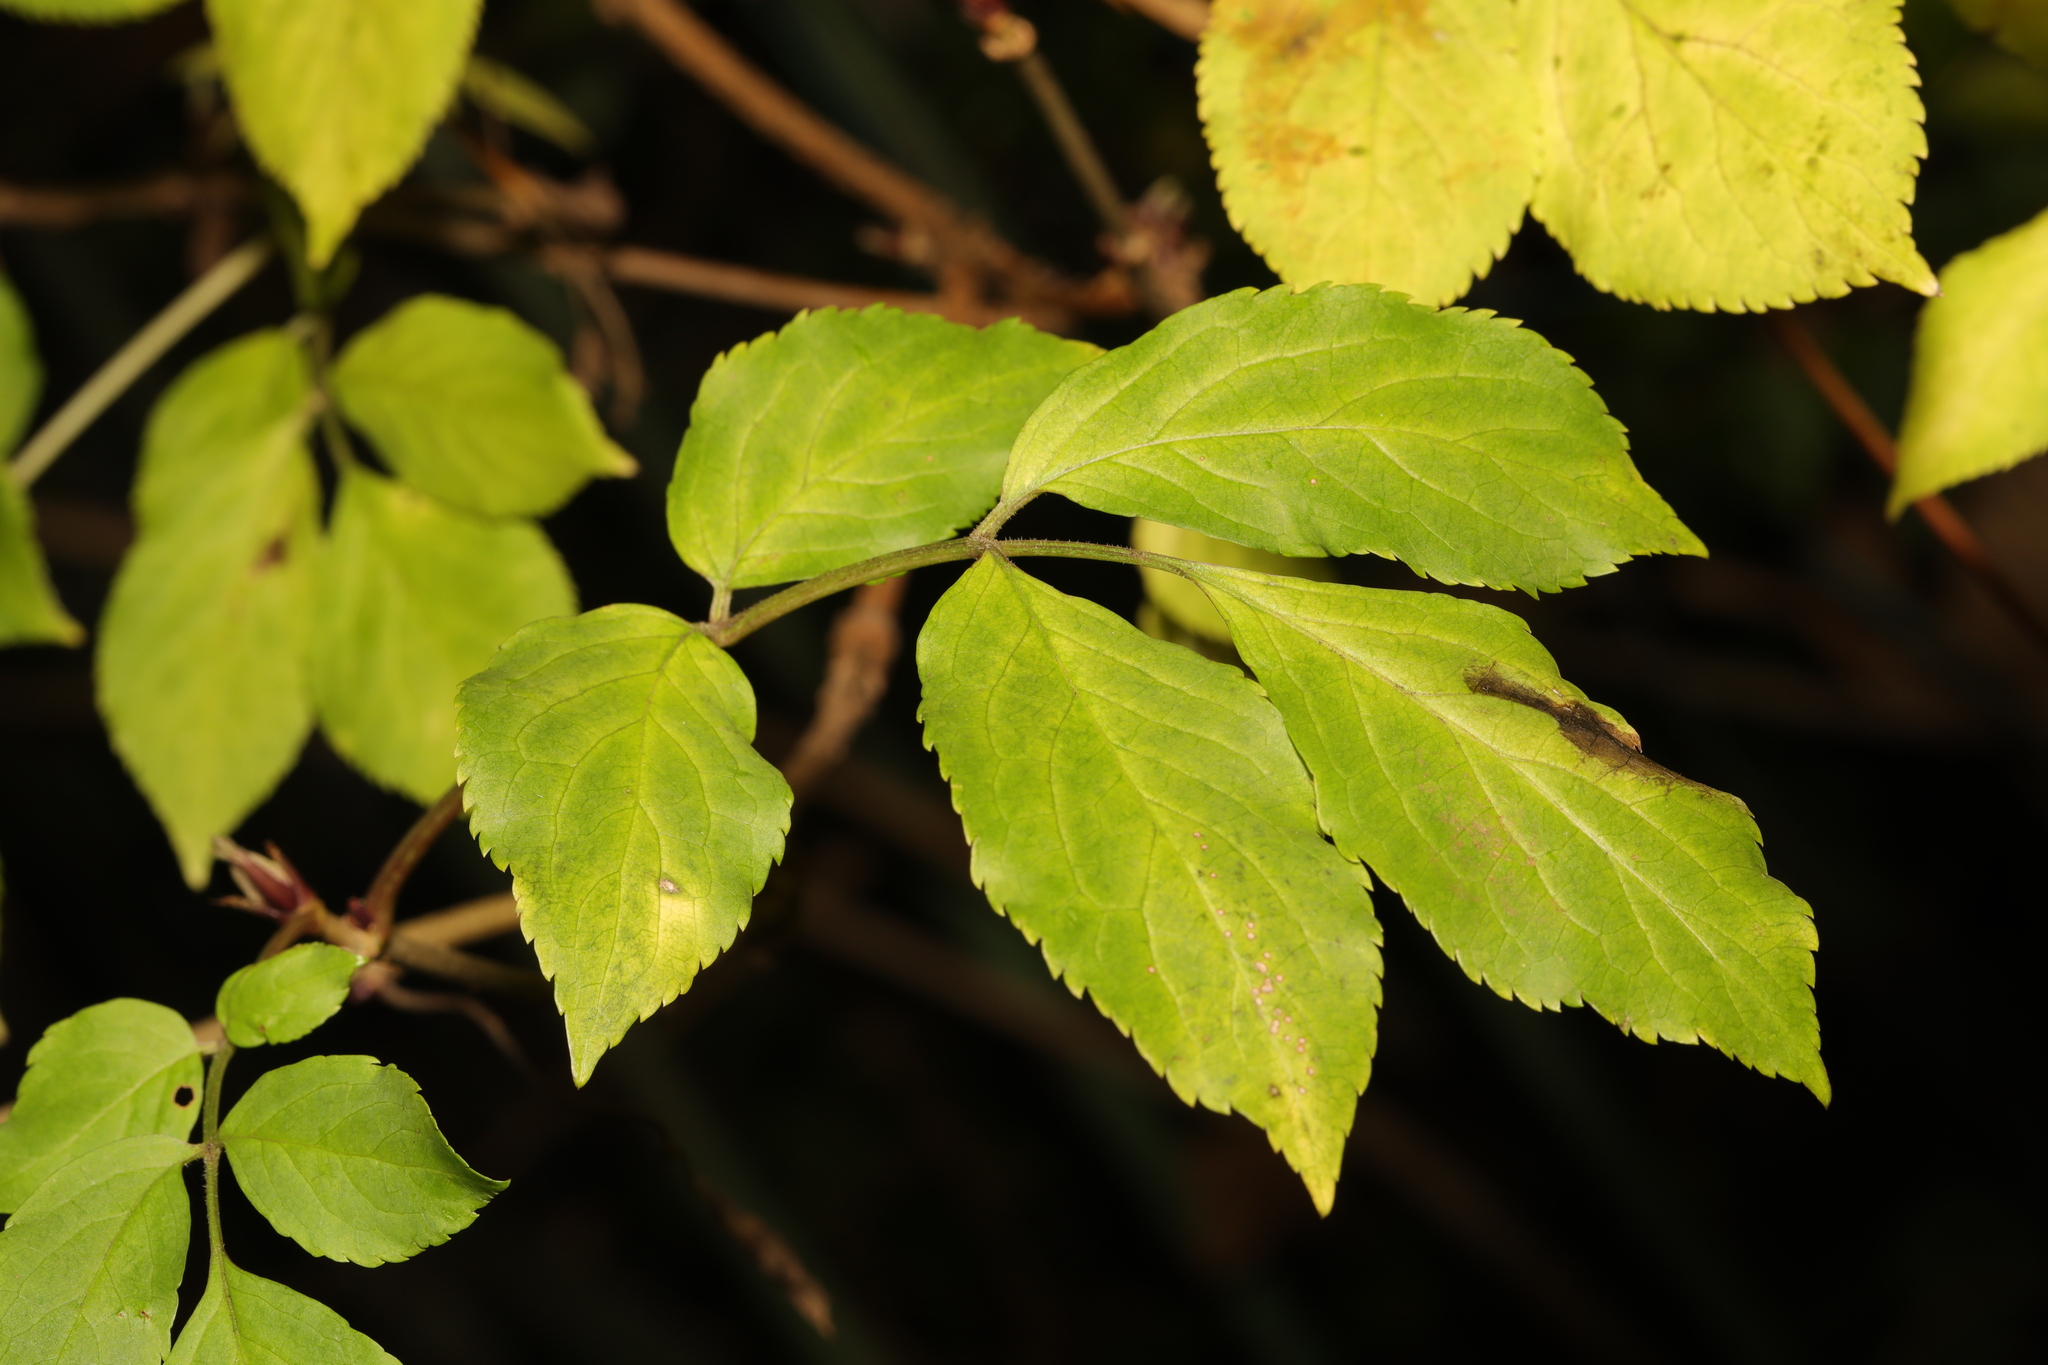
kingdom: Plantae
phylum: Tracheophyta
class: Magnoliopsida
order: Dipsacales
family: Viburnaceae
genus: Sambucus
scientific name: Sambucus nigra
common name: Elder
